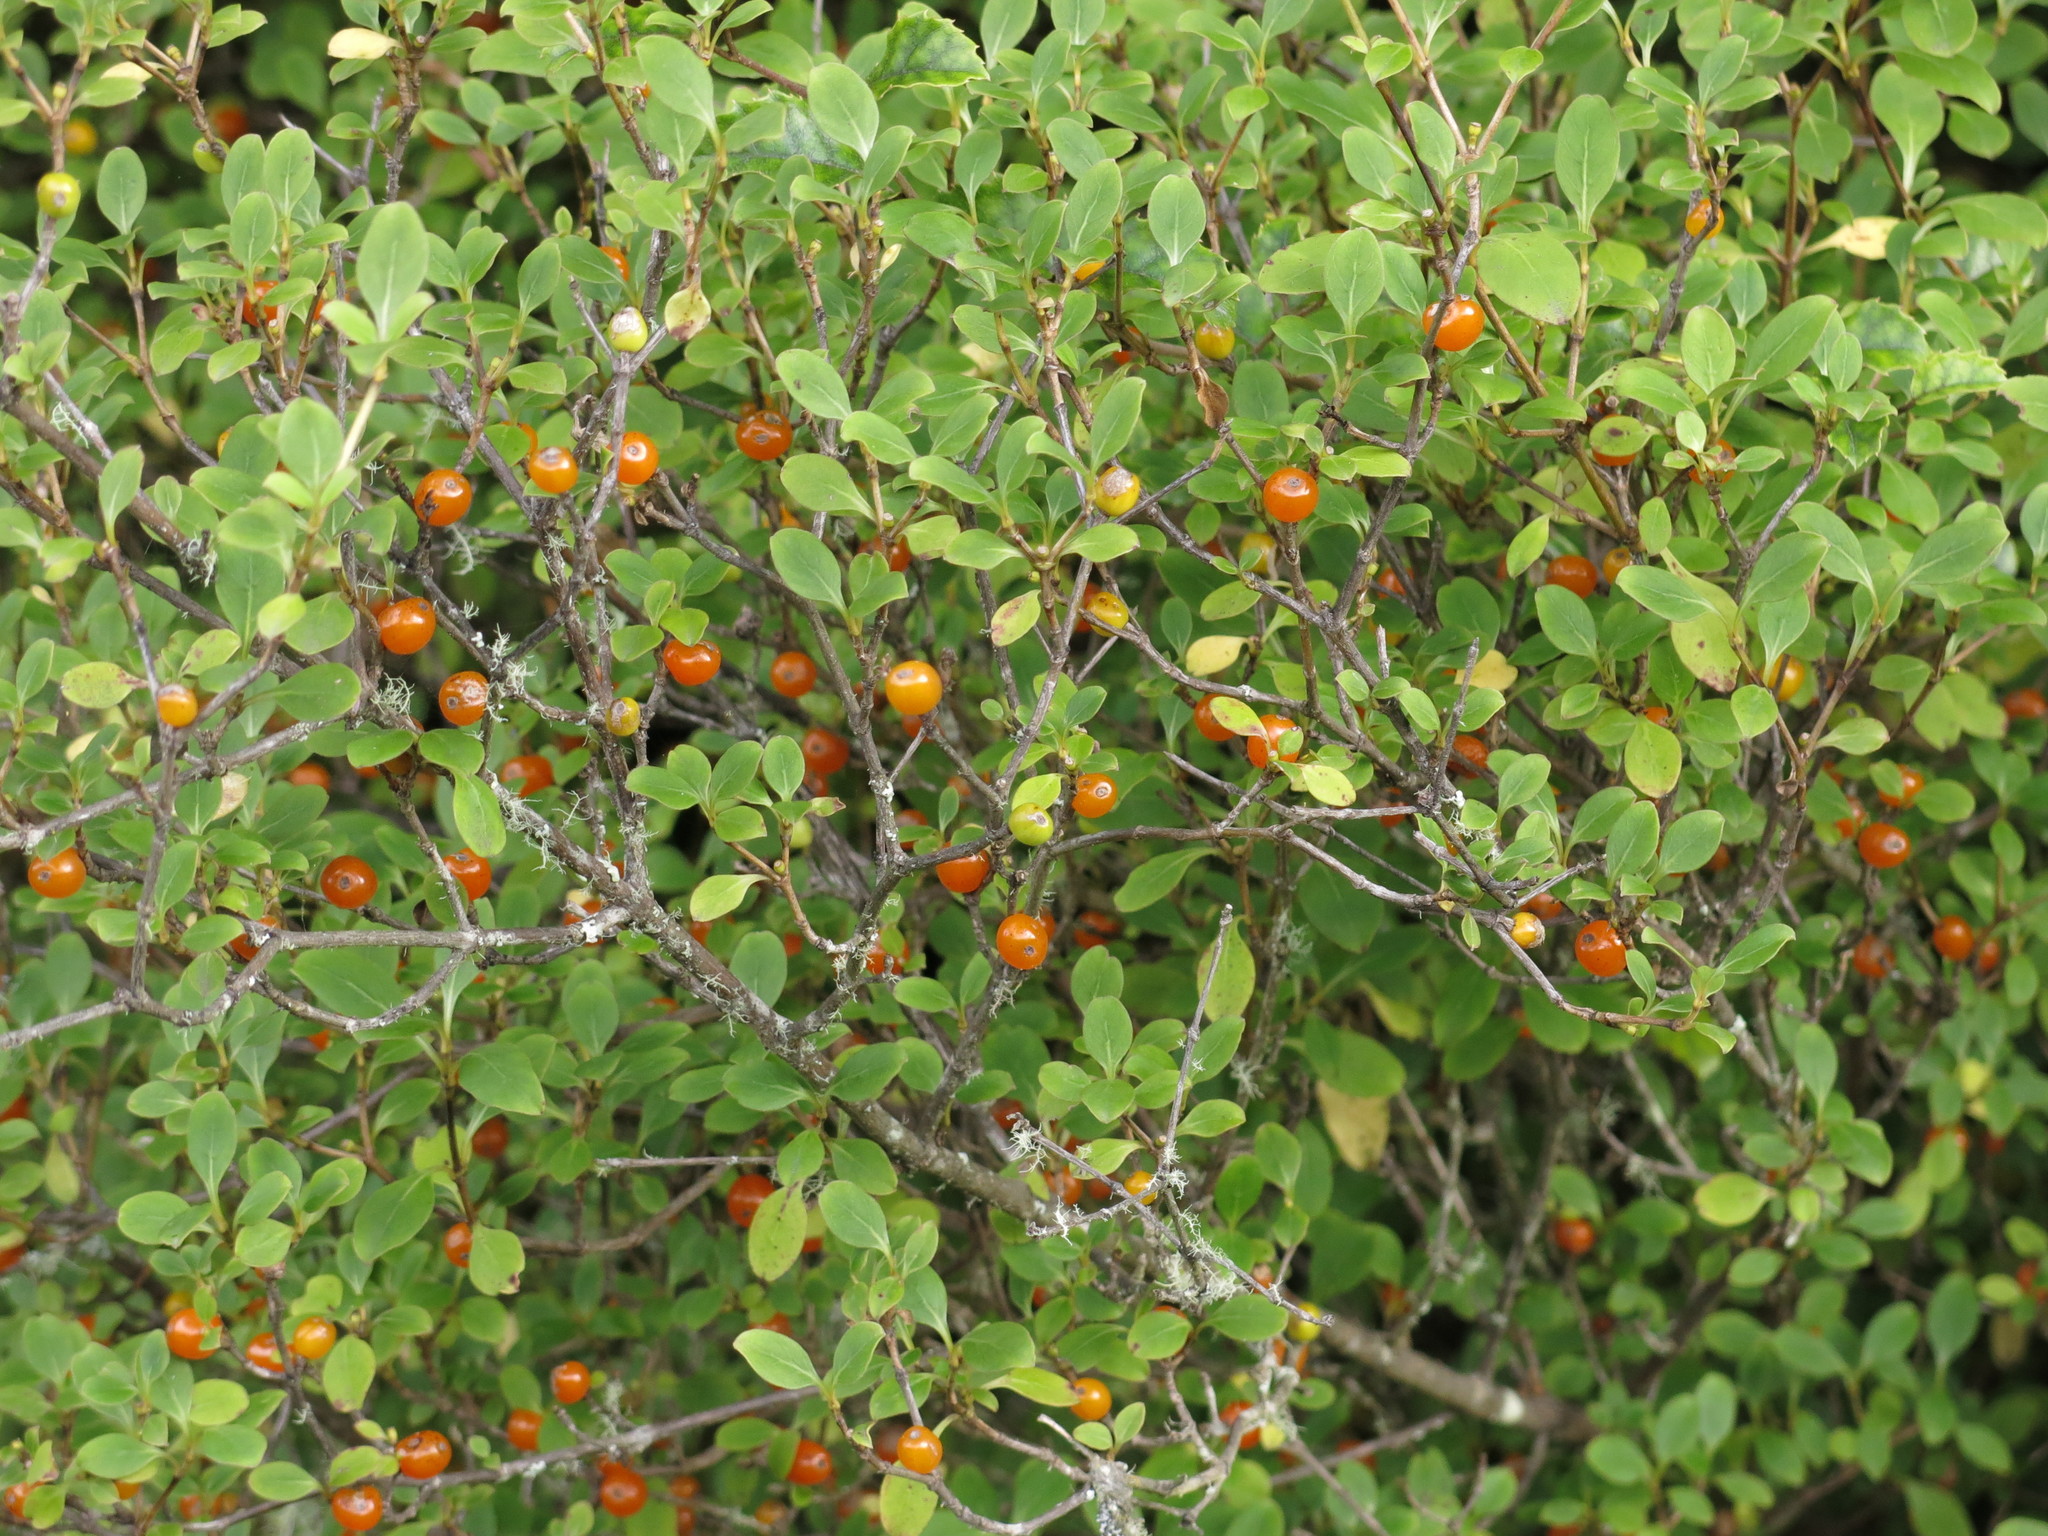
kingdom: Plantae
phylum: Tracheophyta
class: Magnoliopsida
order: Gentianales
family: Rubiaceae
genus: Coprosma
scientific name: Coprosma foetidissima
